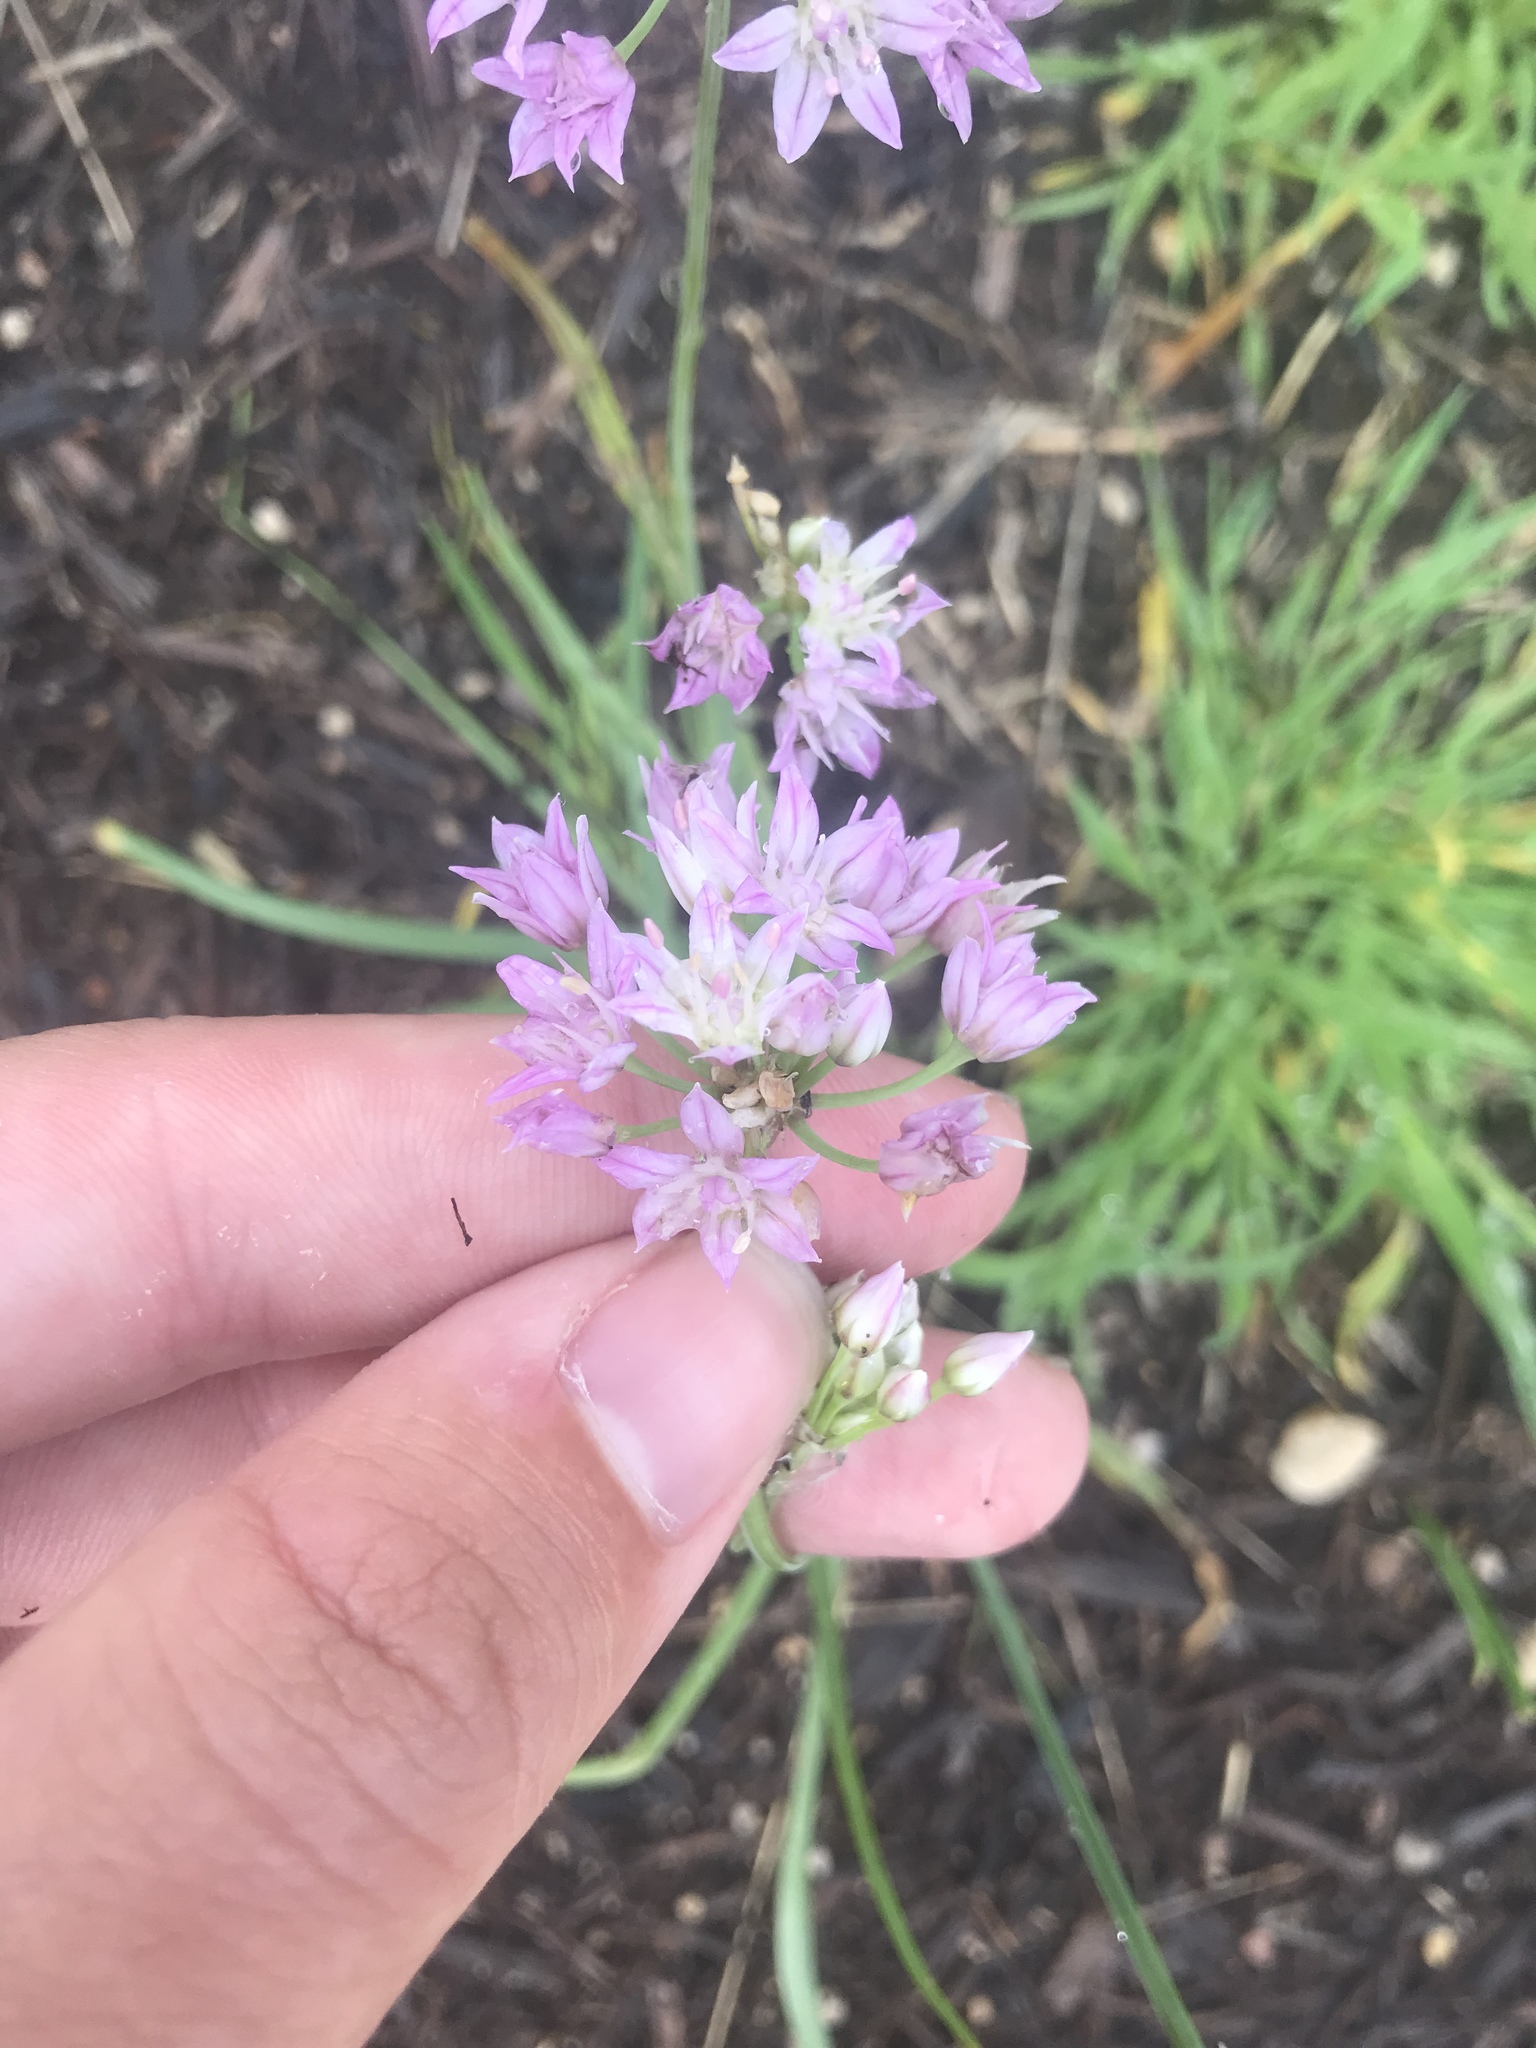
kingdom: Plantae
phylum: Tracheophyta
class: Liliopsida
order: Asparagales
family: Amaryllidaceae
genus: Allium
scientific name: Allium drummondii
